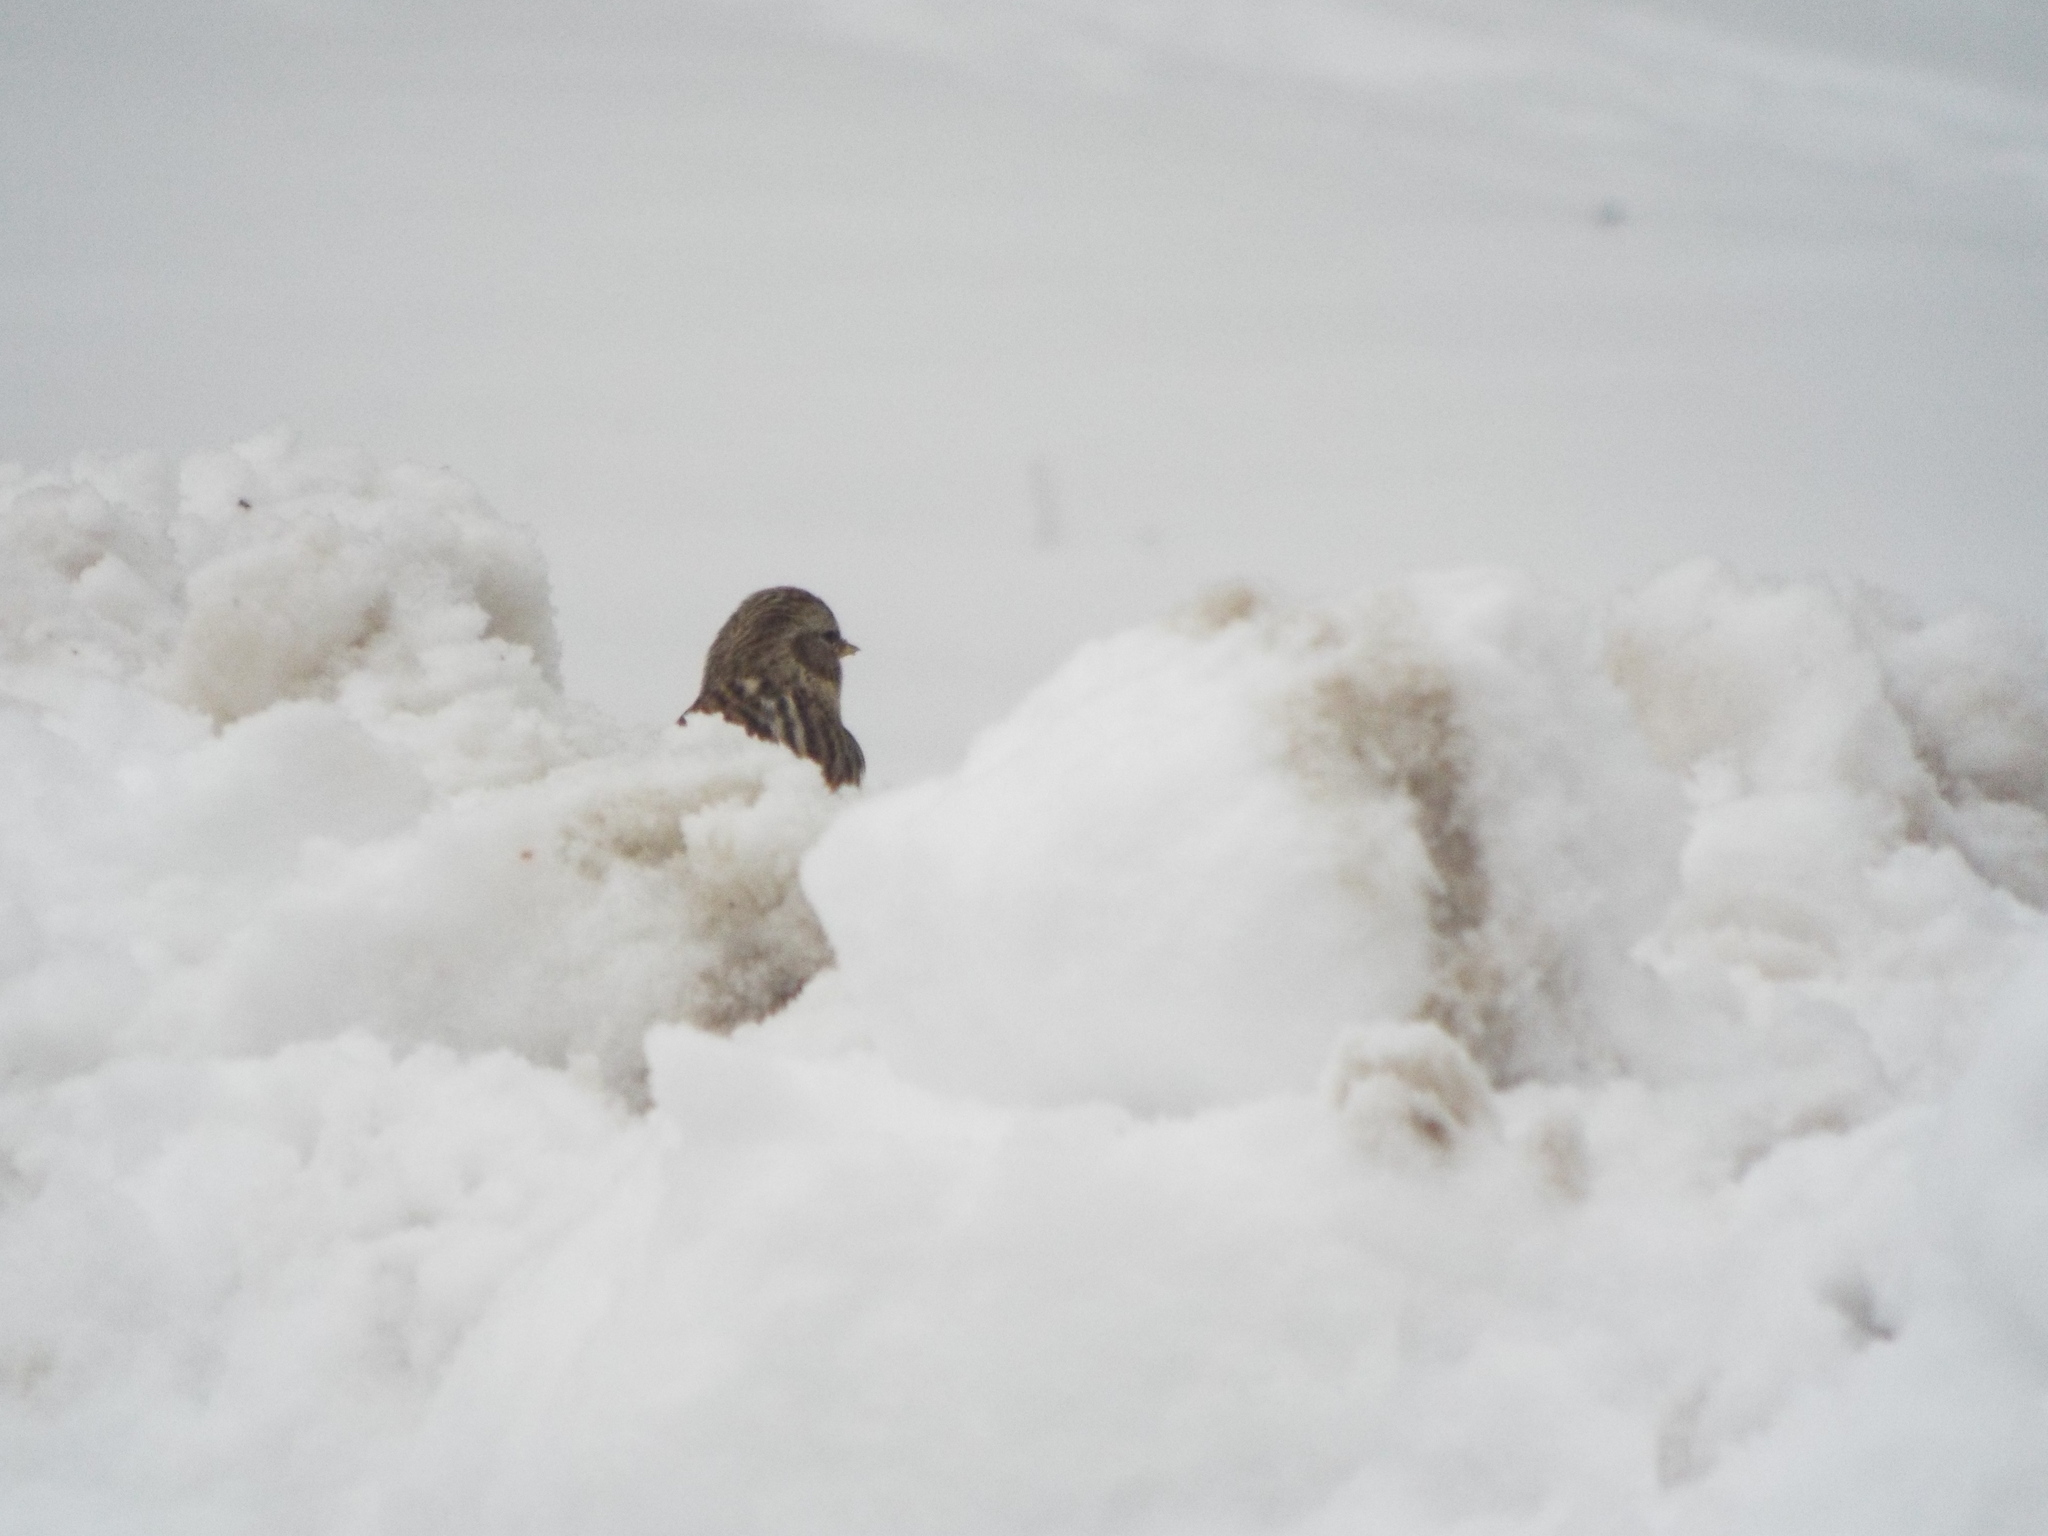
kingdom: Animalia
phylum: Chordata
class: Aves
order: Passeriformes
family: Fringillidae
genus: Acanthis
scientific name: Acanthis flammea
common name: Common redpoll
